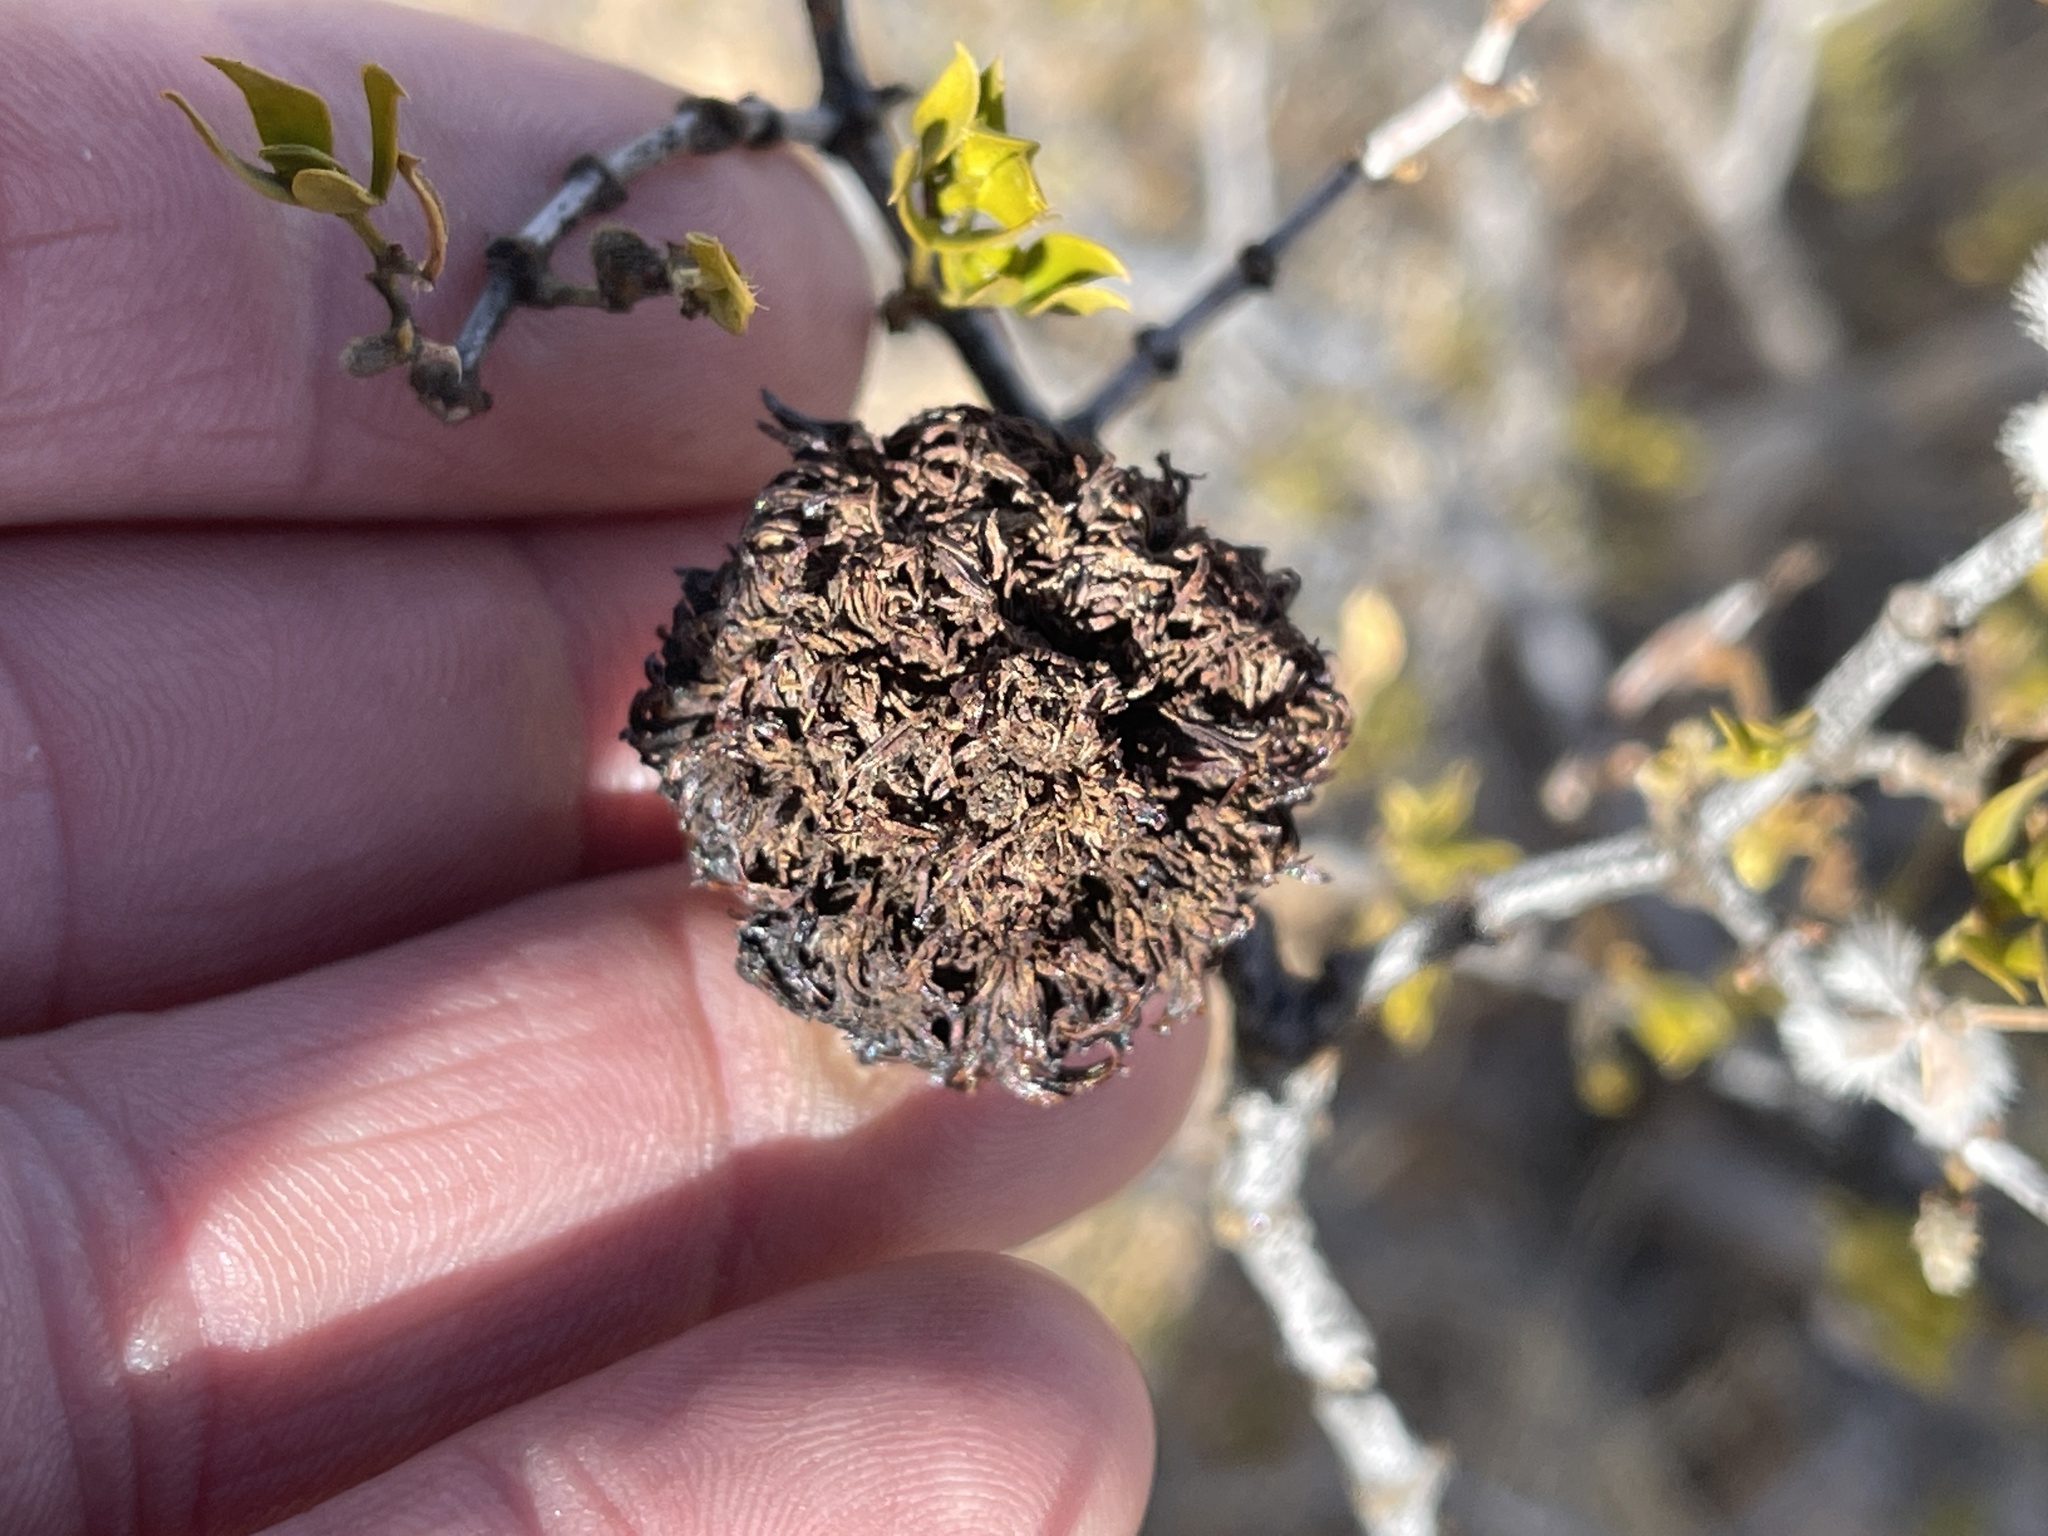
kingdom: Animalia
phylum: Arthropoda
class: Insecta
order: Diptera
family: Cecidomyiidae
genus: Asphondylia
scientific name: Asphondylia auripila
